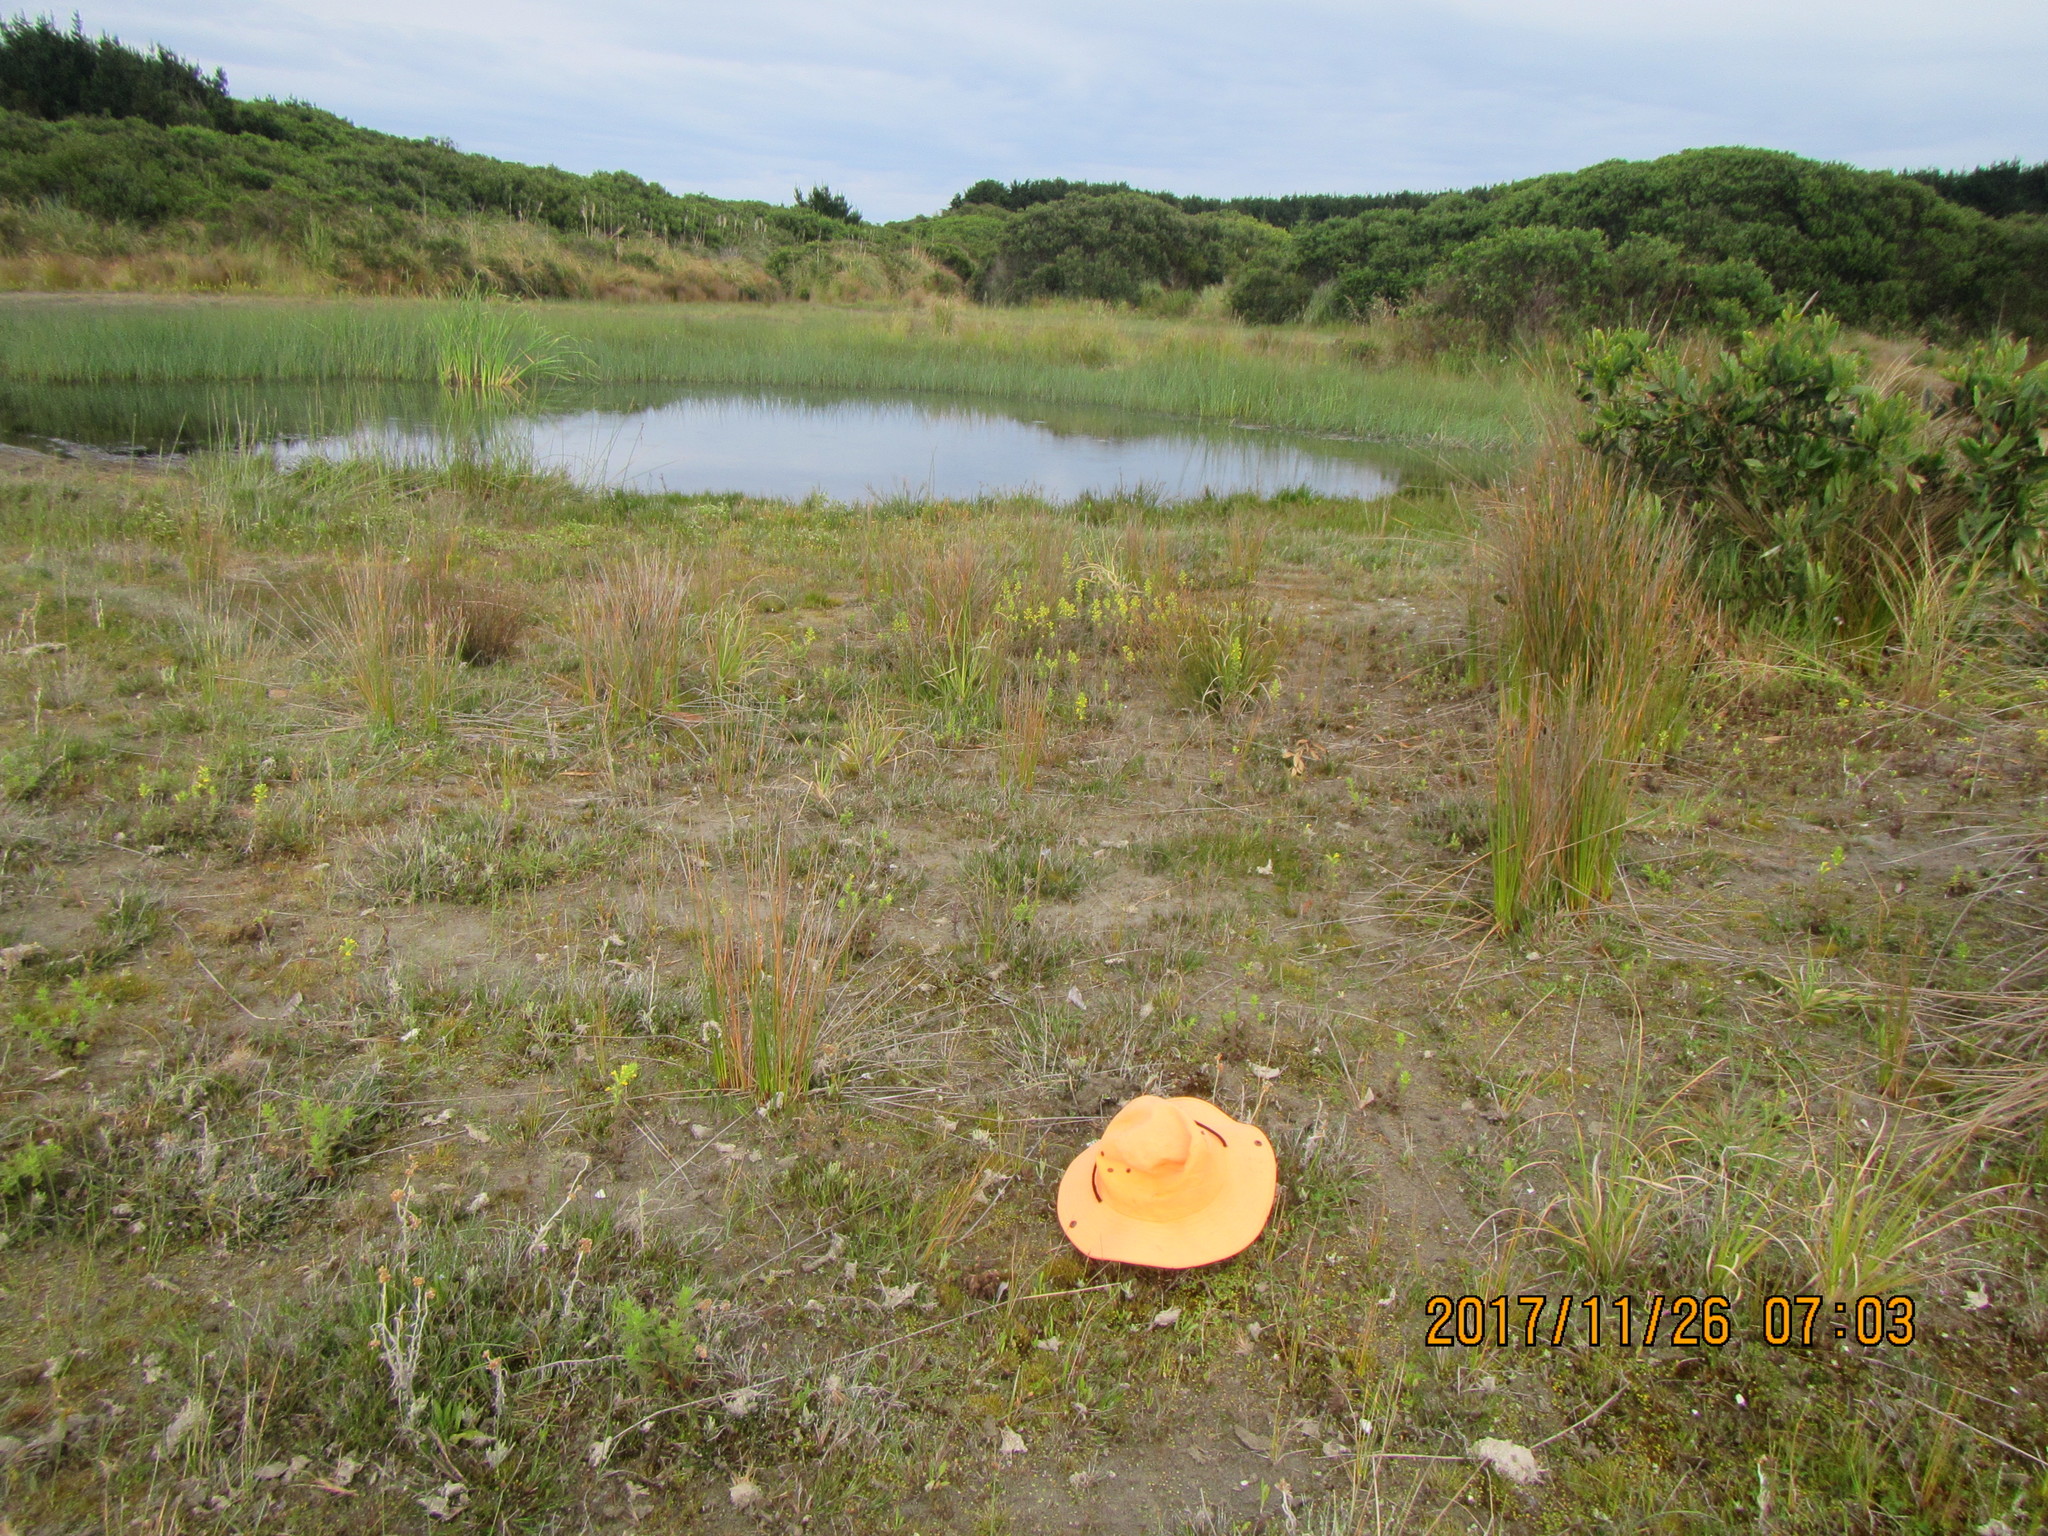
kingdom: Plantae
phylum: Tracheophyta
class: Magnoliopsida
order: Lamiales
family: Orobanchaceae
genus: Bellardia
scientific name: Bellardia viscosa
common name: Sticky parentucellia
